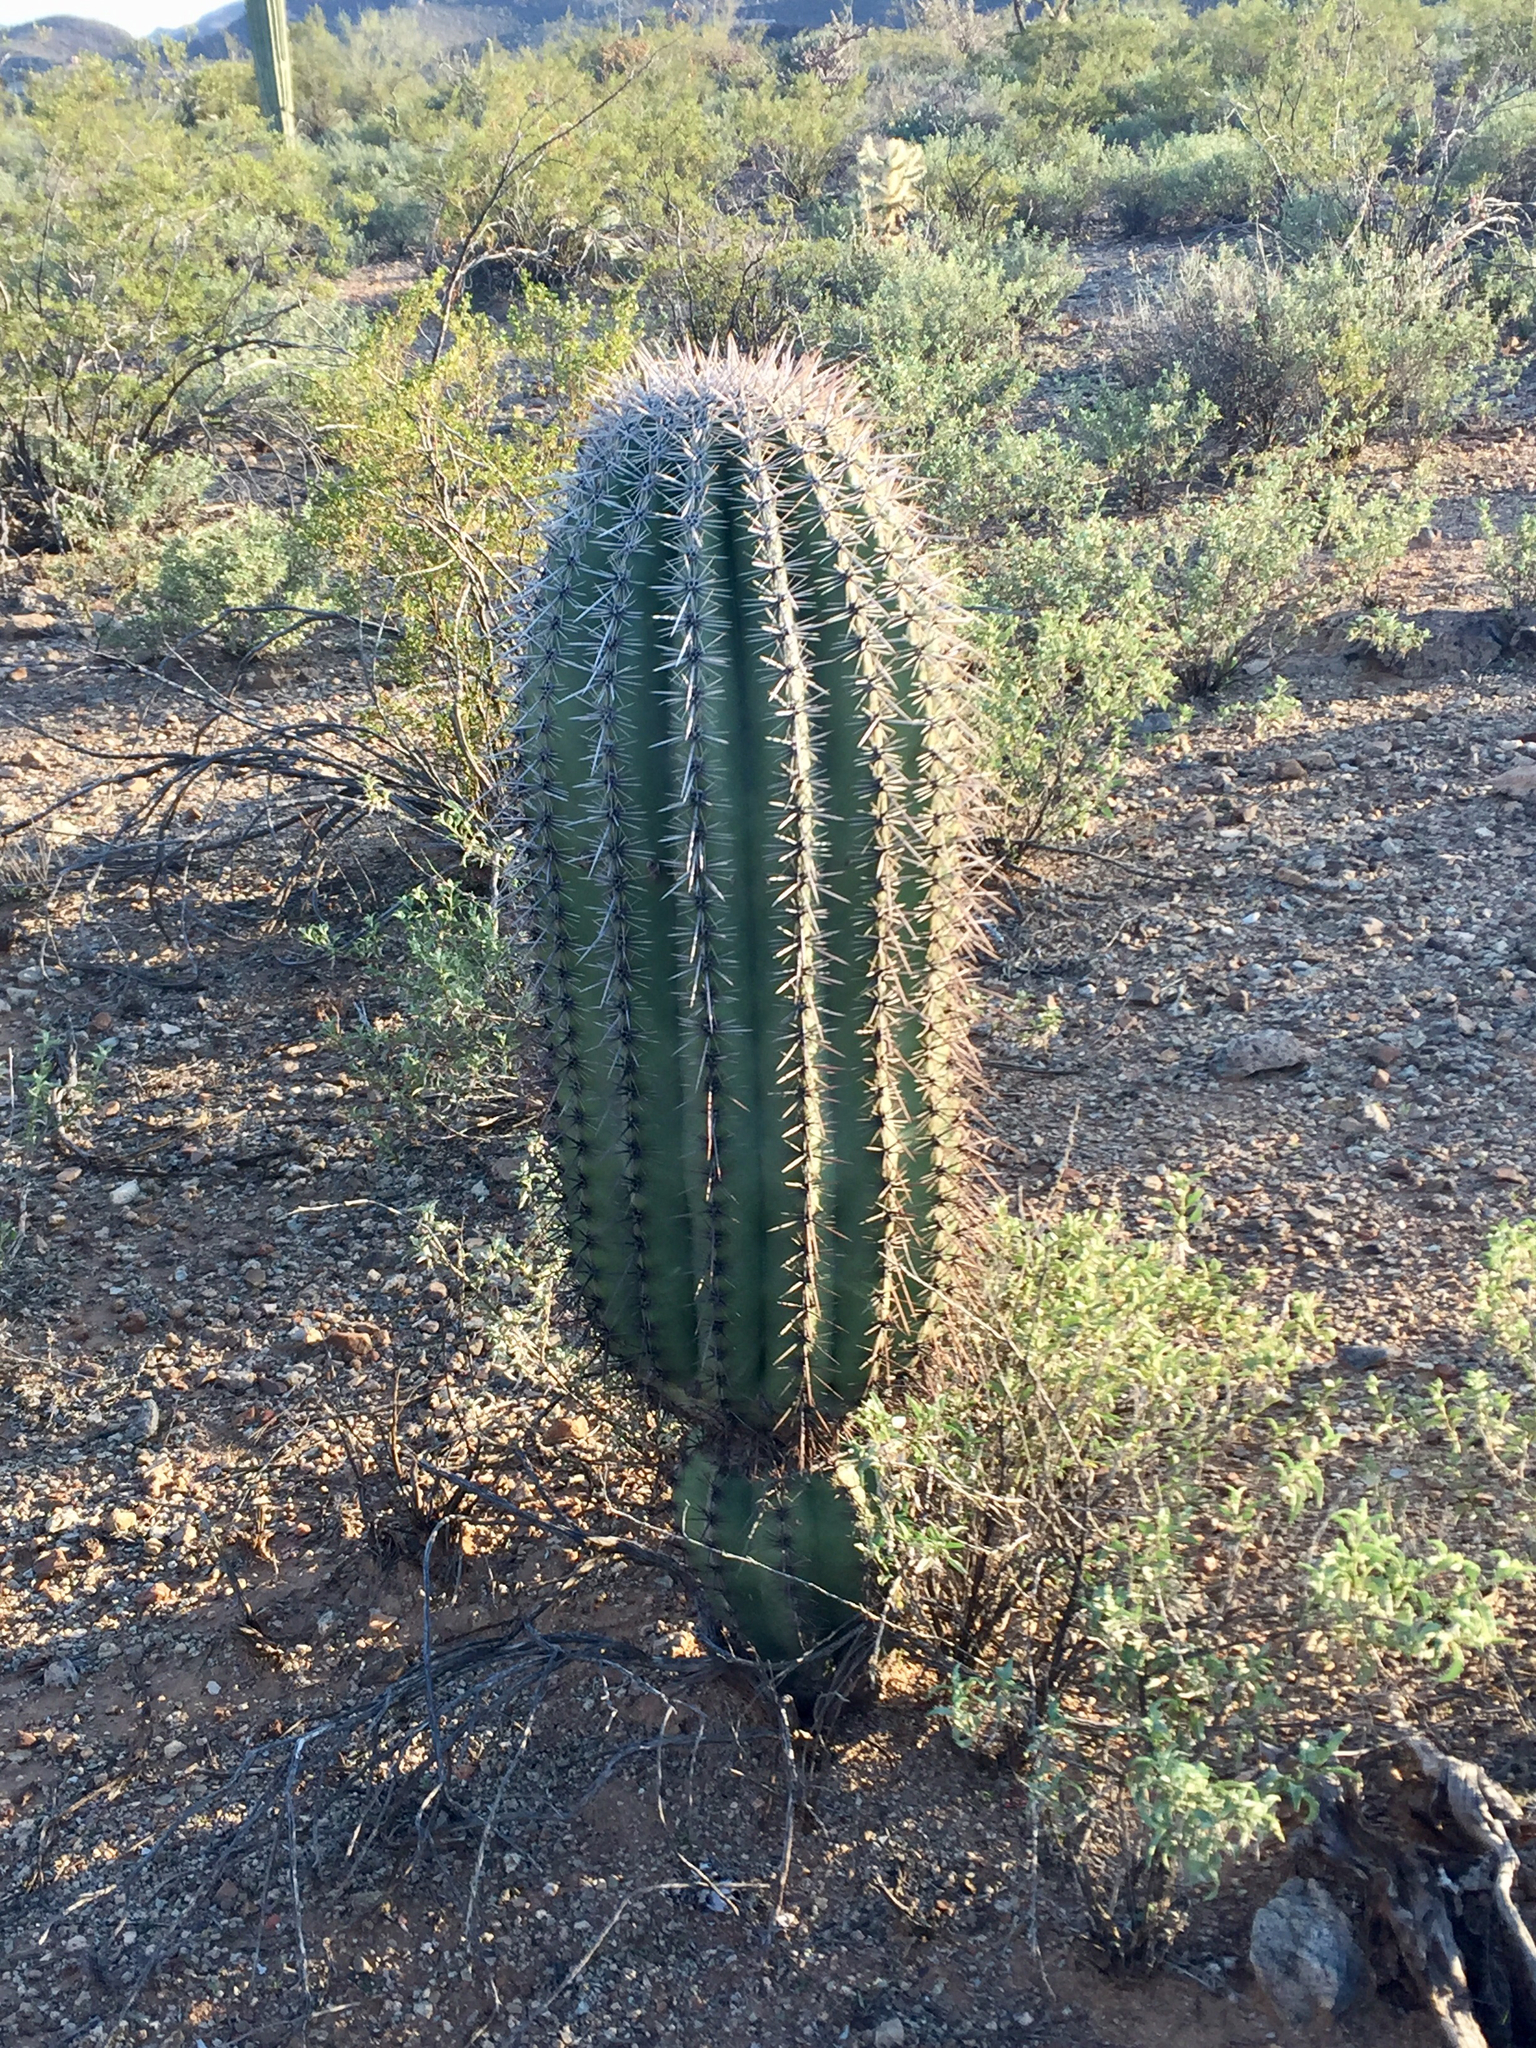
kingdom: Plantae
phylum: Tracheophyta
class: Magnoliopsida
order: Caryophyllales
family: Cactaceae
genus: Carnegiea
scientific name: Carnegiea gigantea
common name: Saguaro
